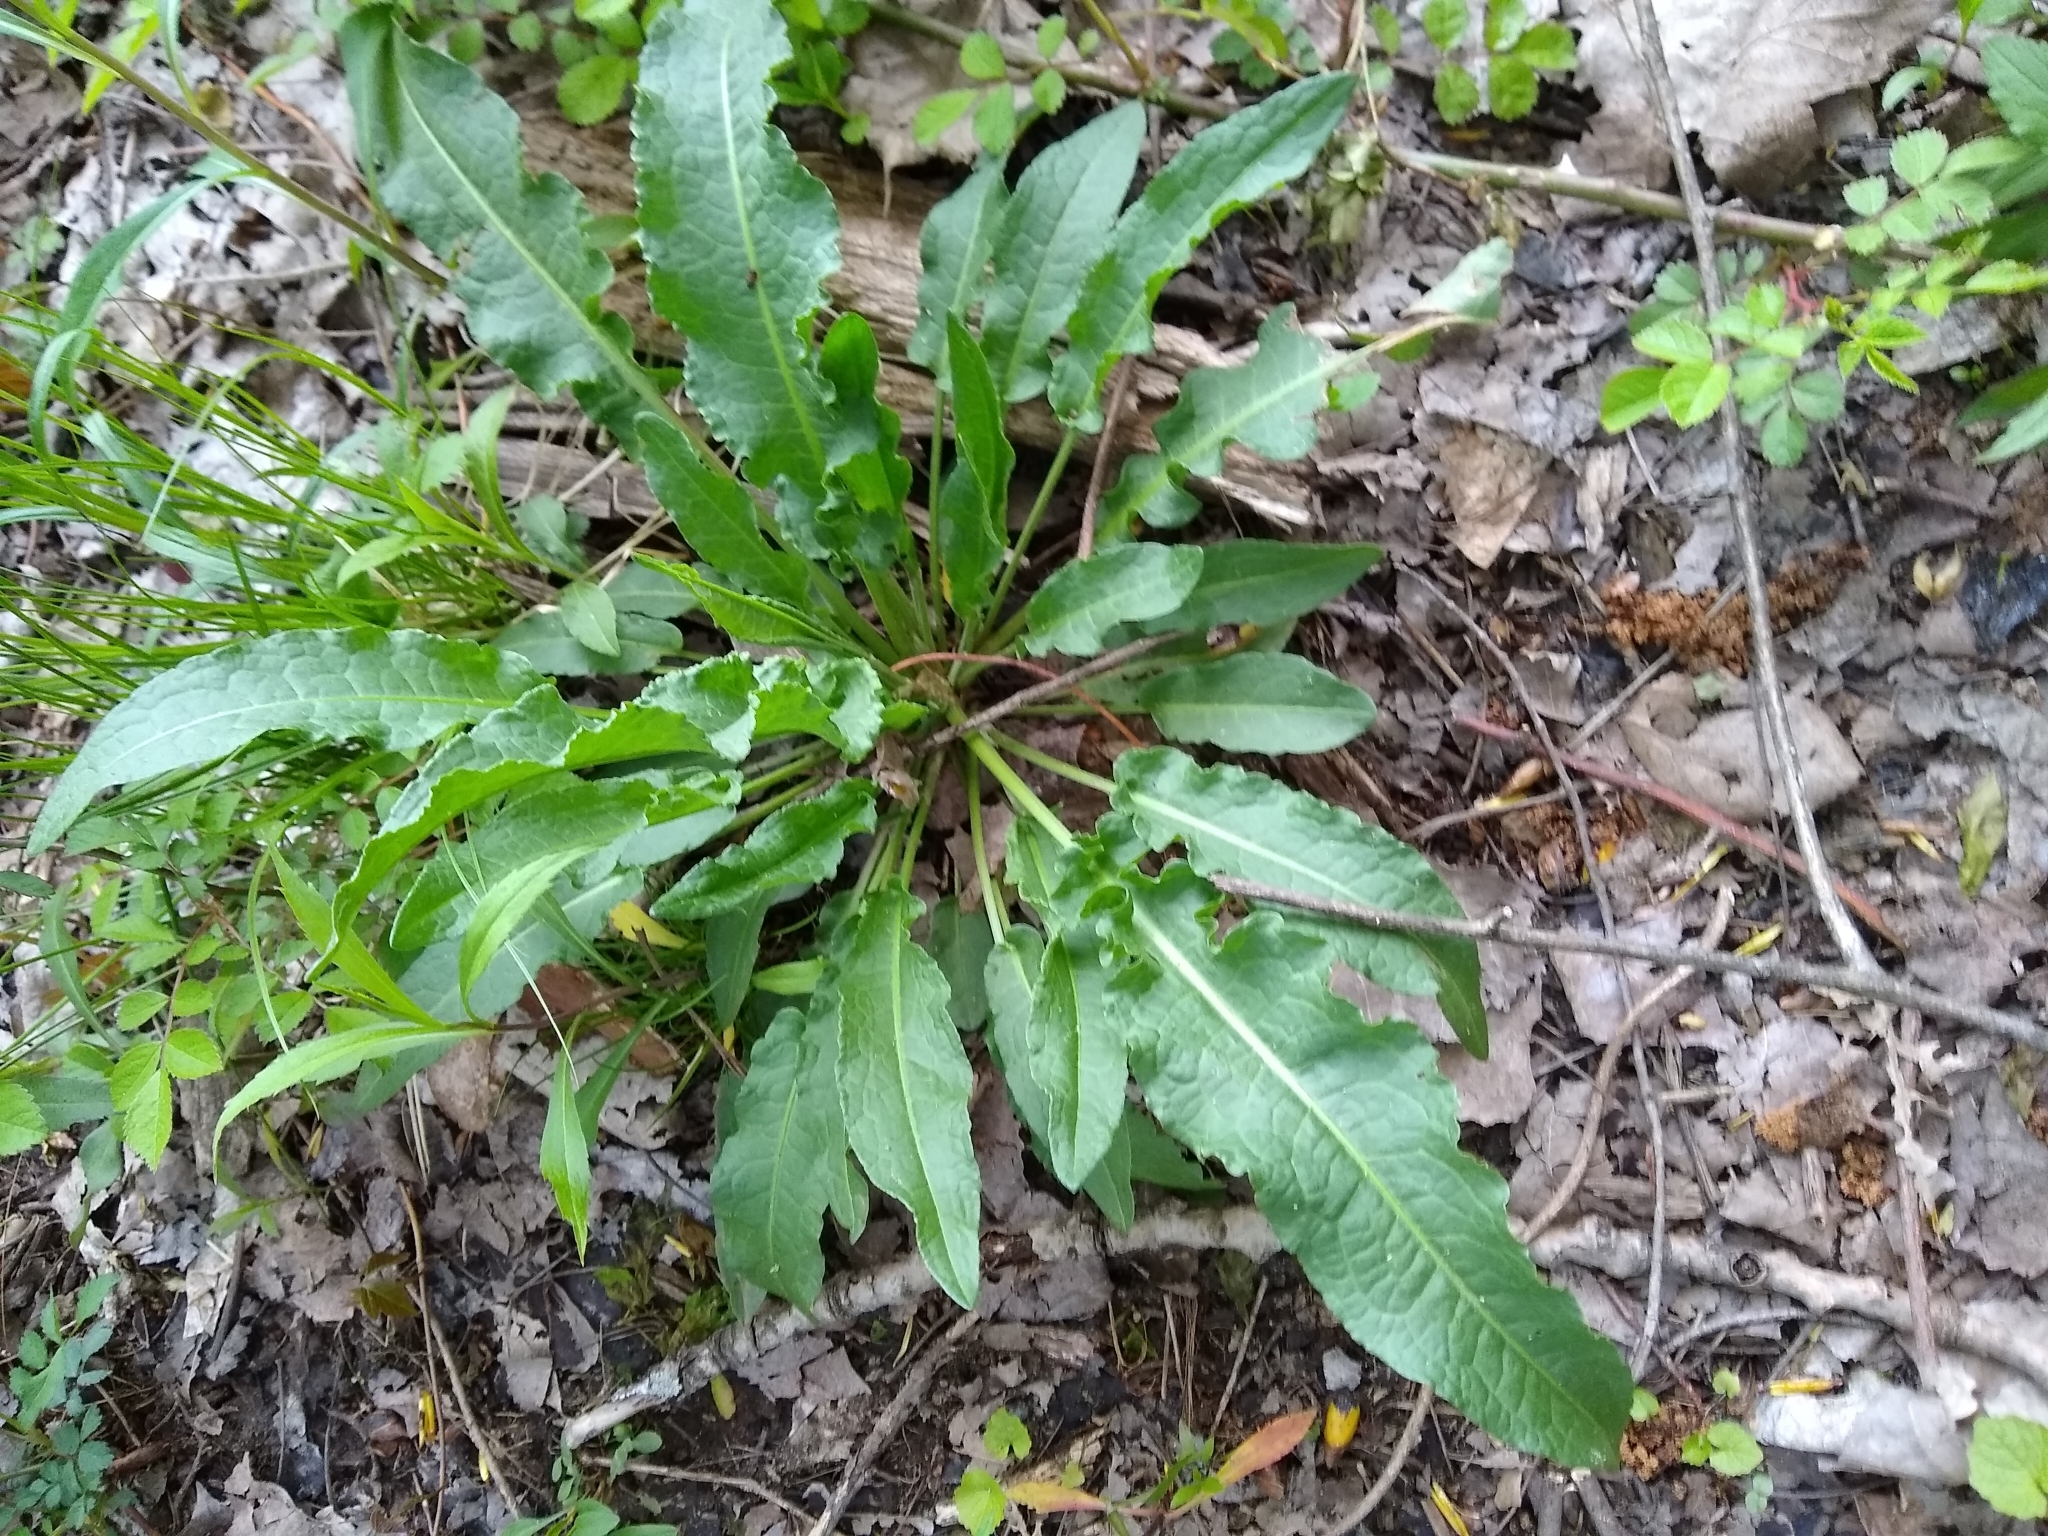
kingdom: Plantae
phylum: Tracheophyta
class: Magnoliopsida
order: Caryophyllales
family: Polygonaceae
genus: Rumex
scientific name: Rumex crispus
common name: Curled dock
